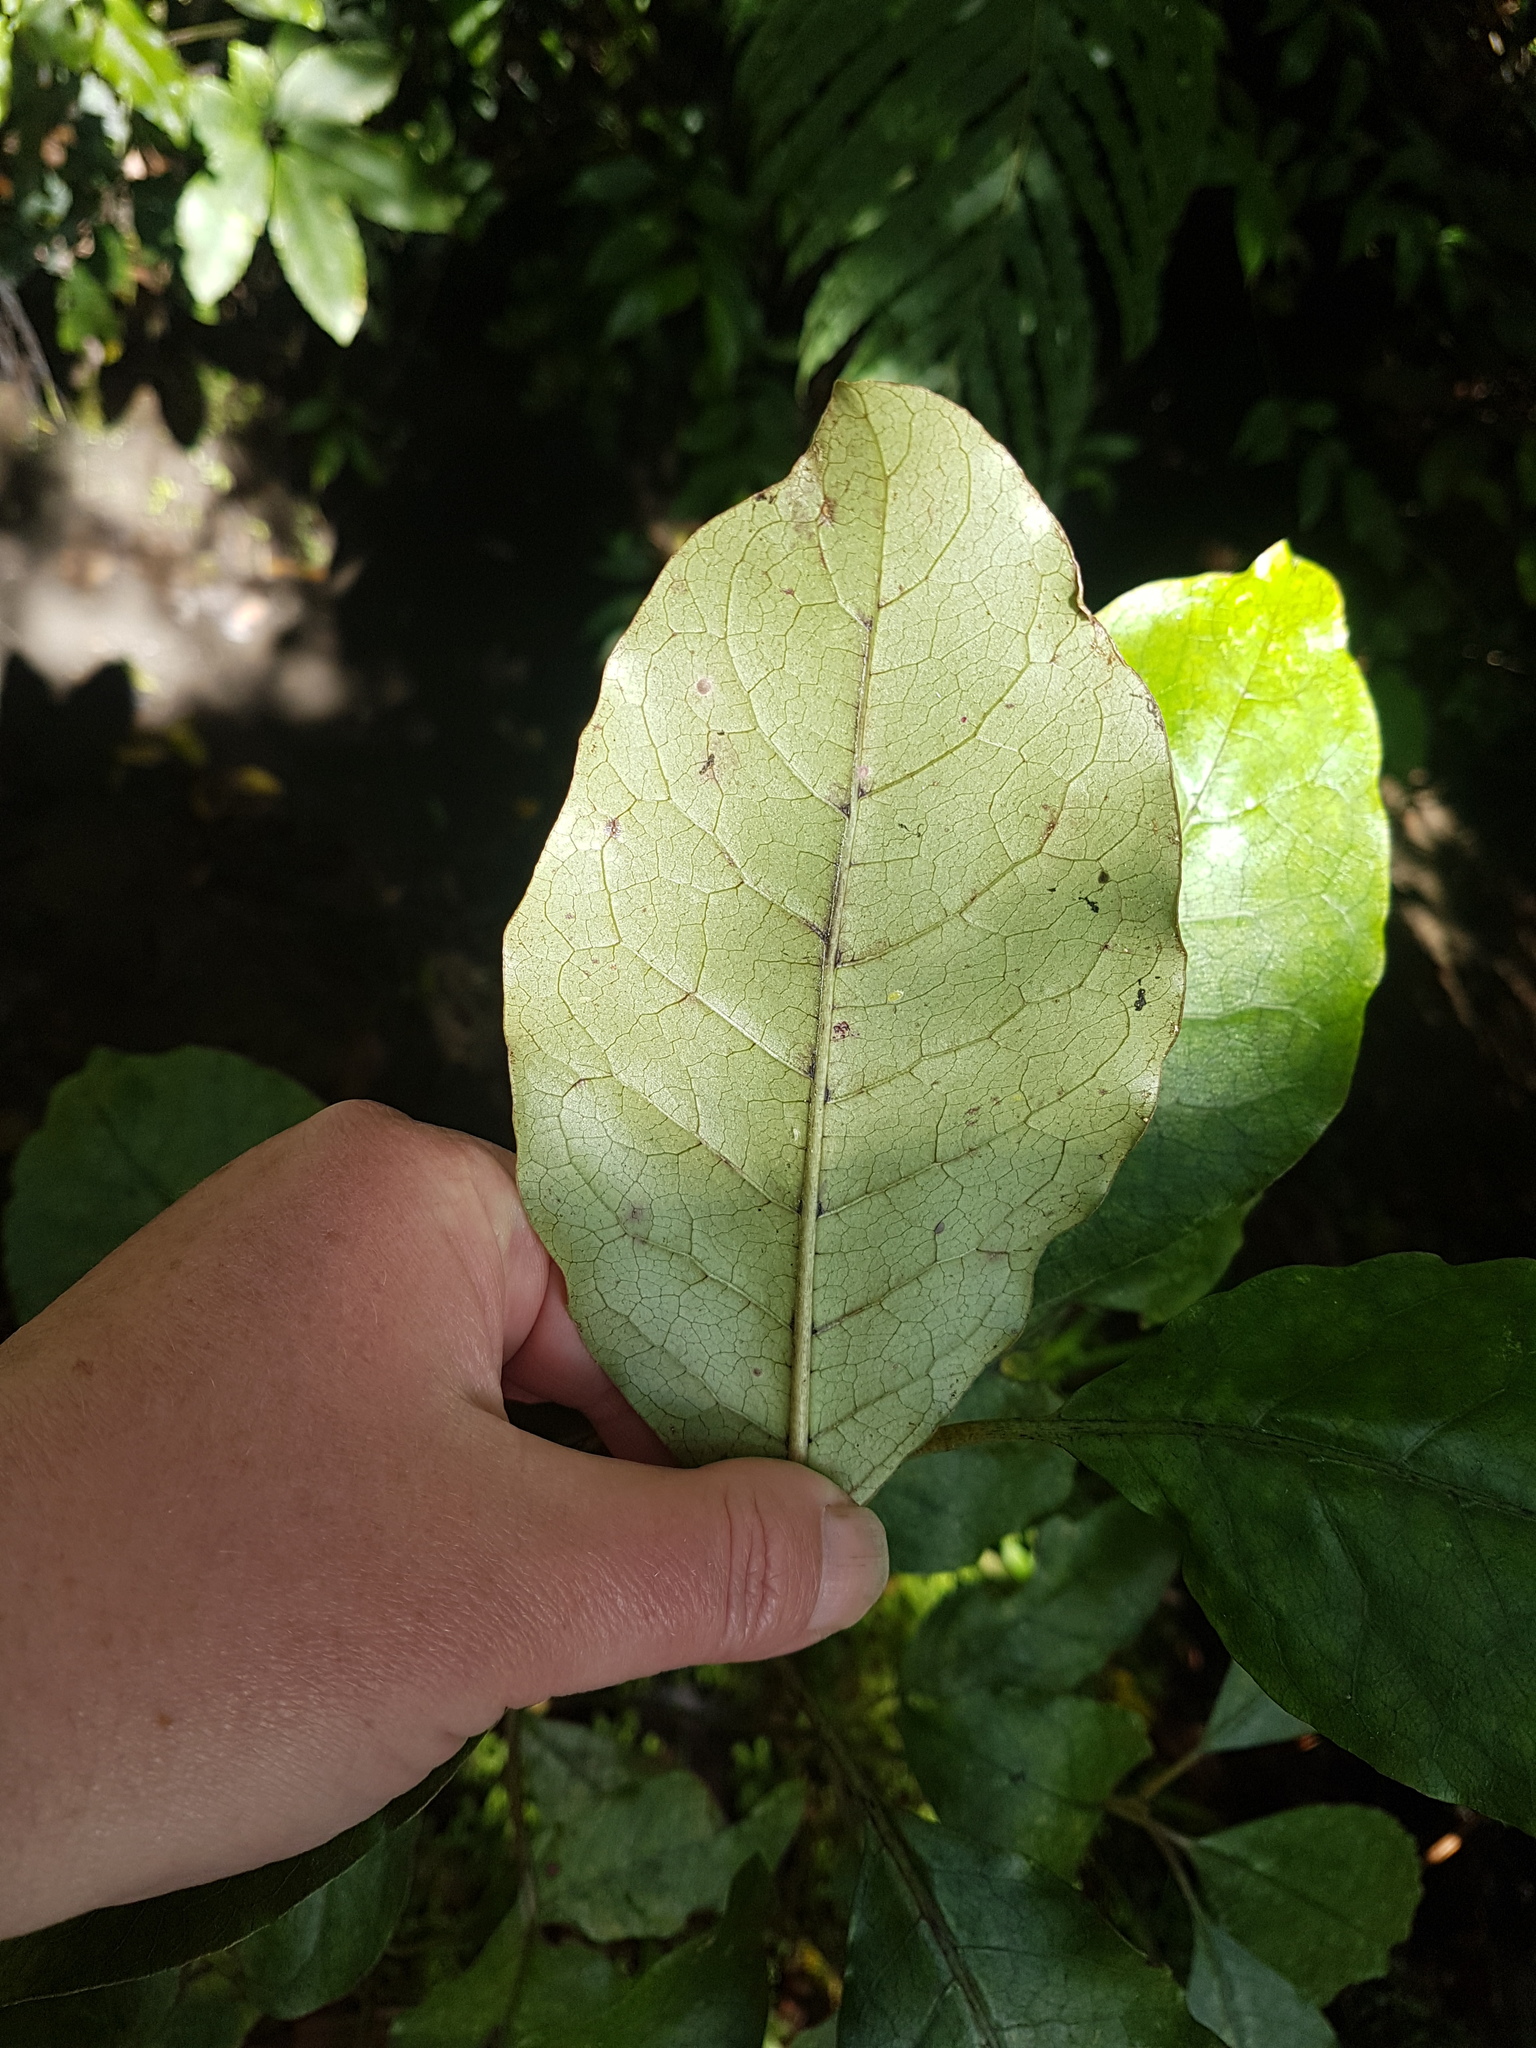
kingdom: Plantae
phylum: Tracheophyta
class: Magnoliopsida
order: Gentianales
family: Rubiaceae
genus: Coprosma
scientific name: Coprosma autumnalis
